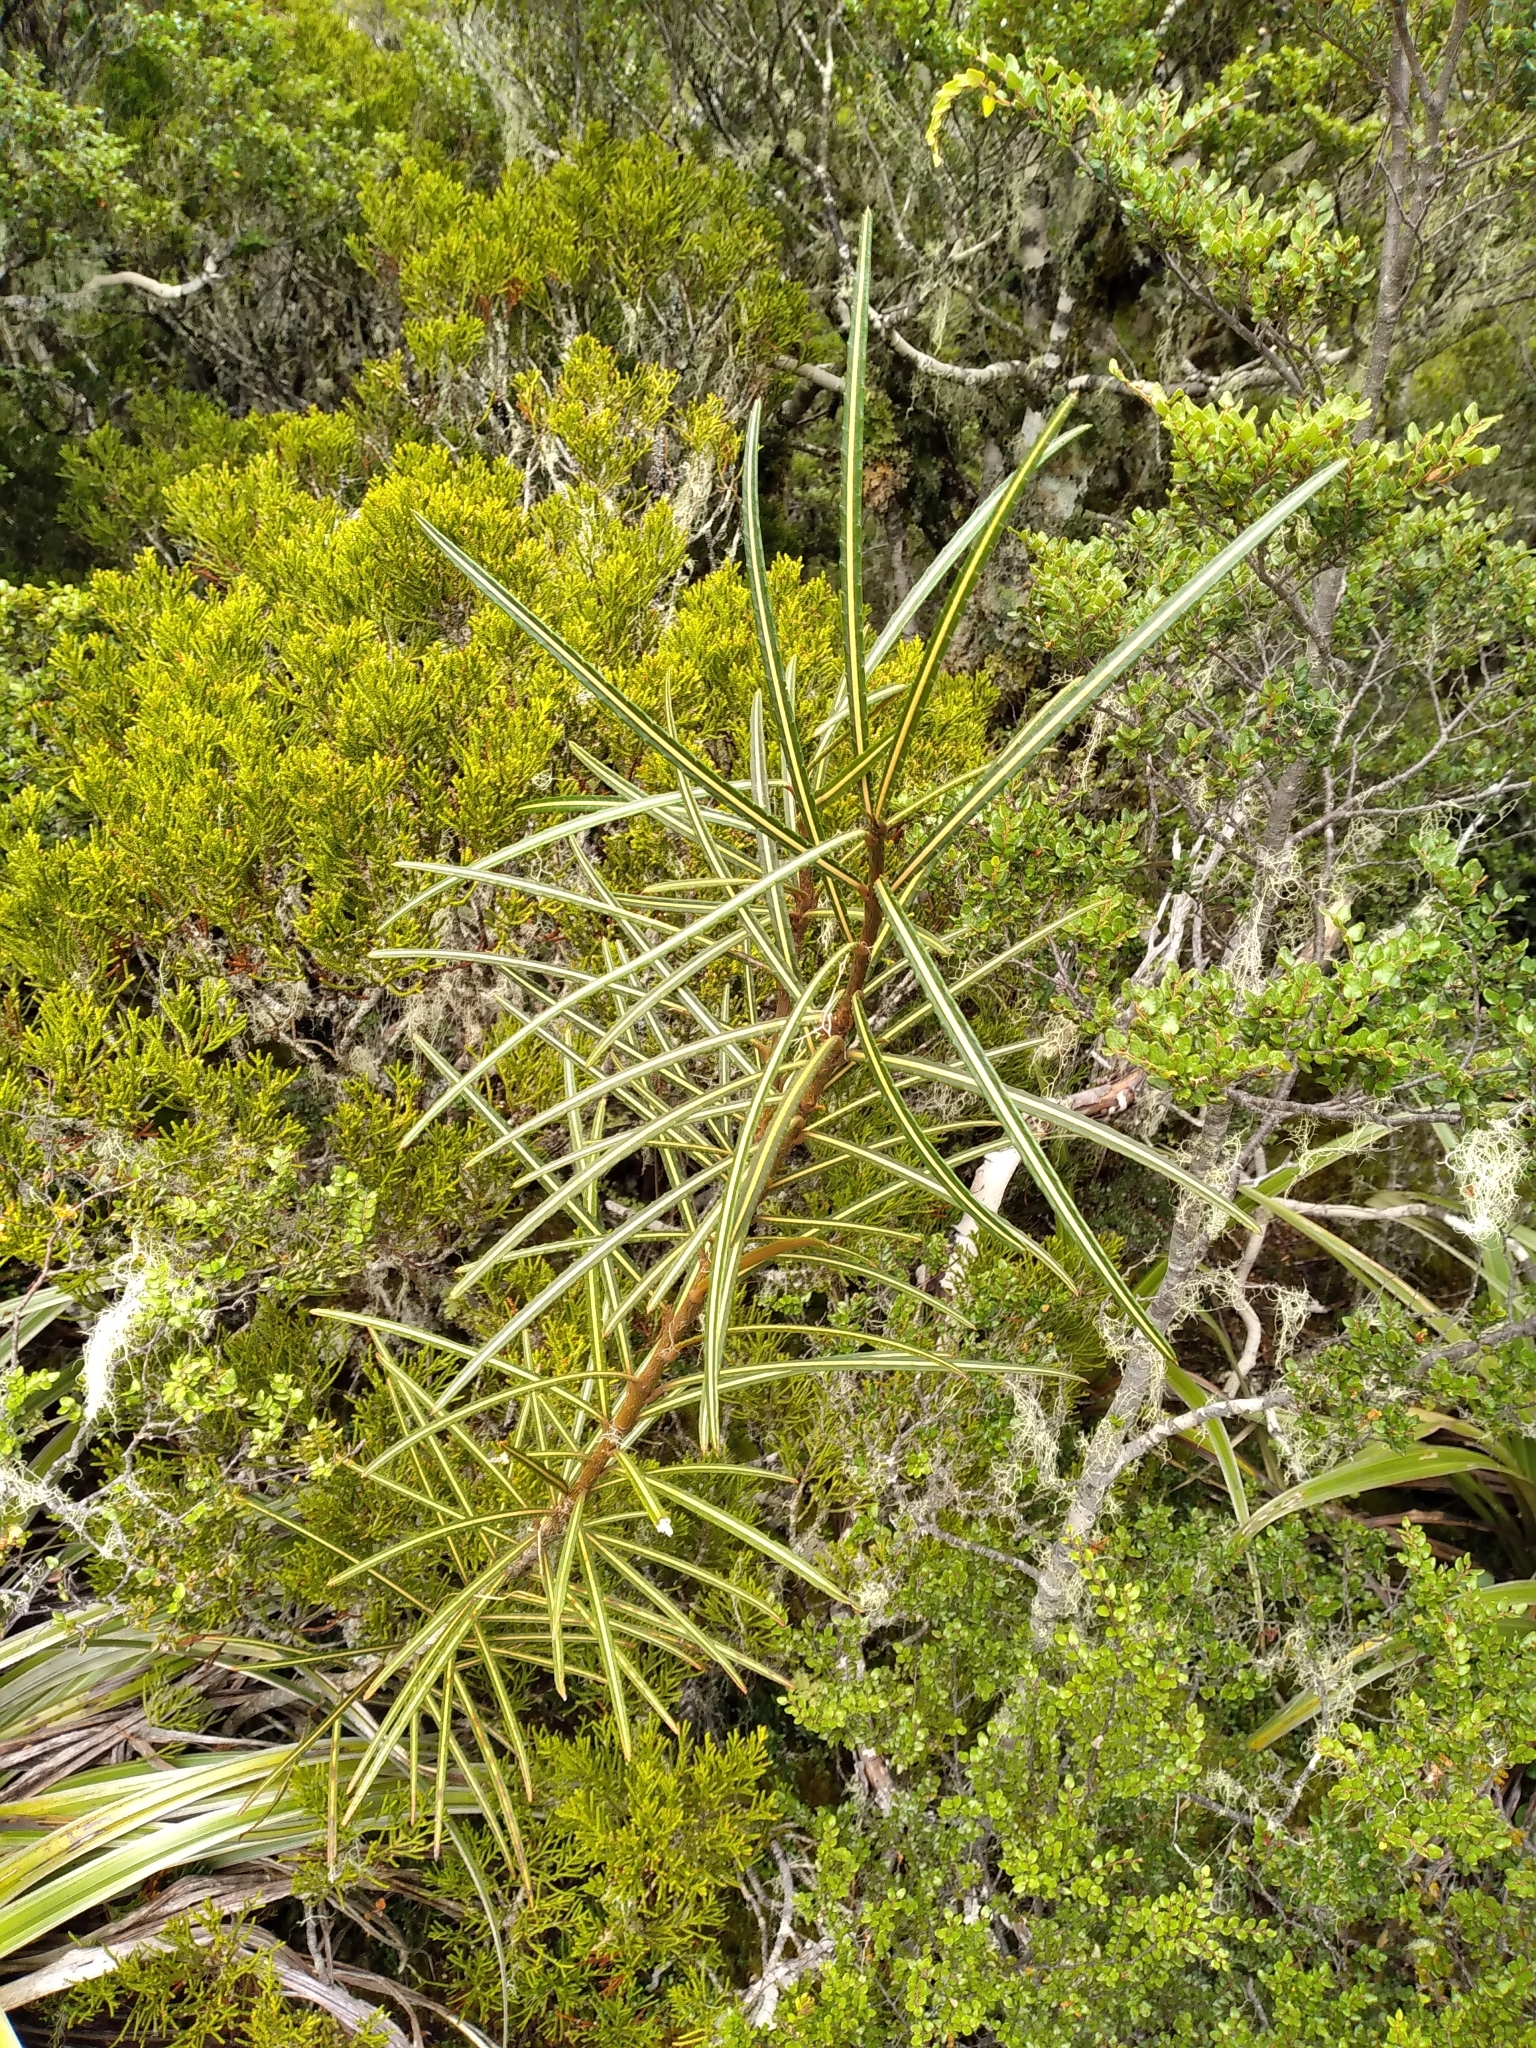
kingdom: Plantae
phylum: Tracheophyta
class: Magnoliopsida
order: Apiales
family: Araliaceae
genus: Pseudopanax
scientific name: Pseudopanax linearis
